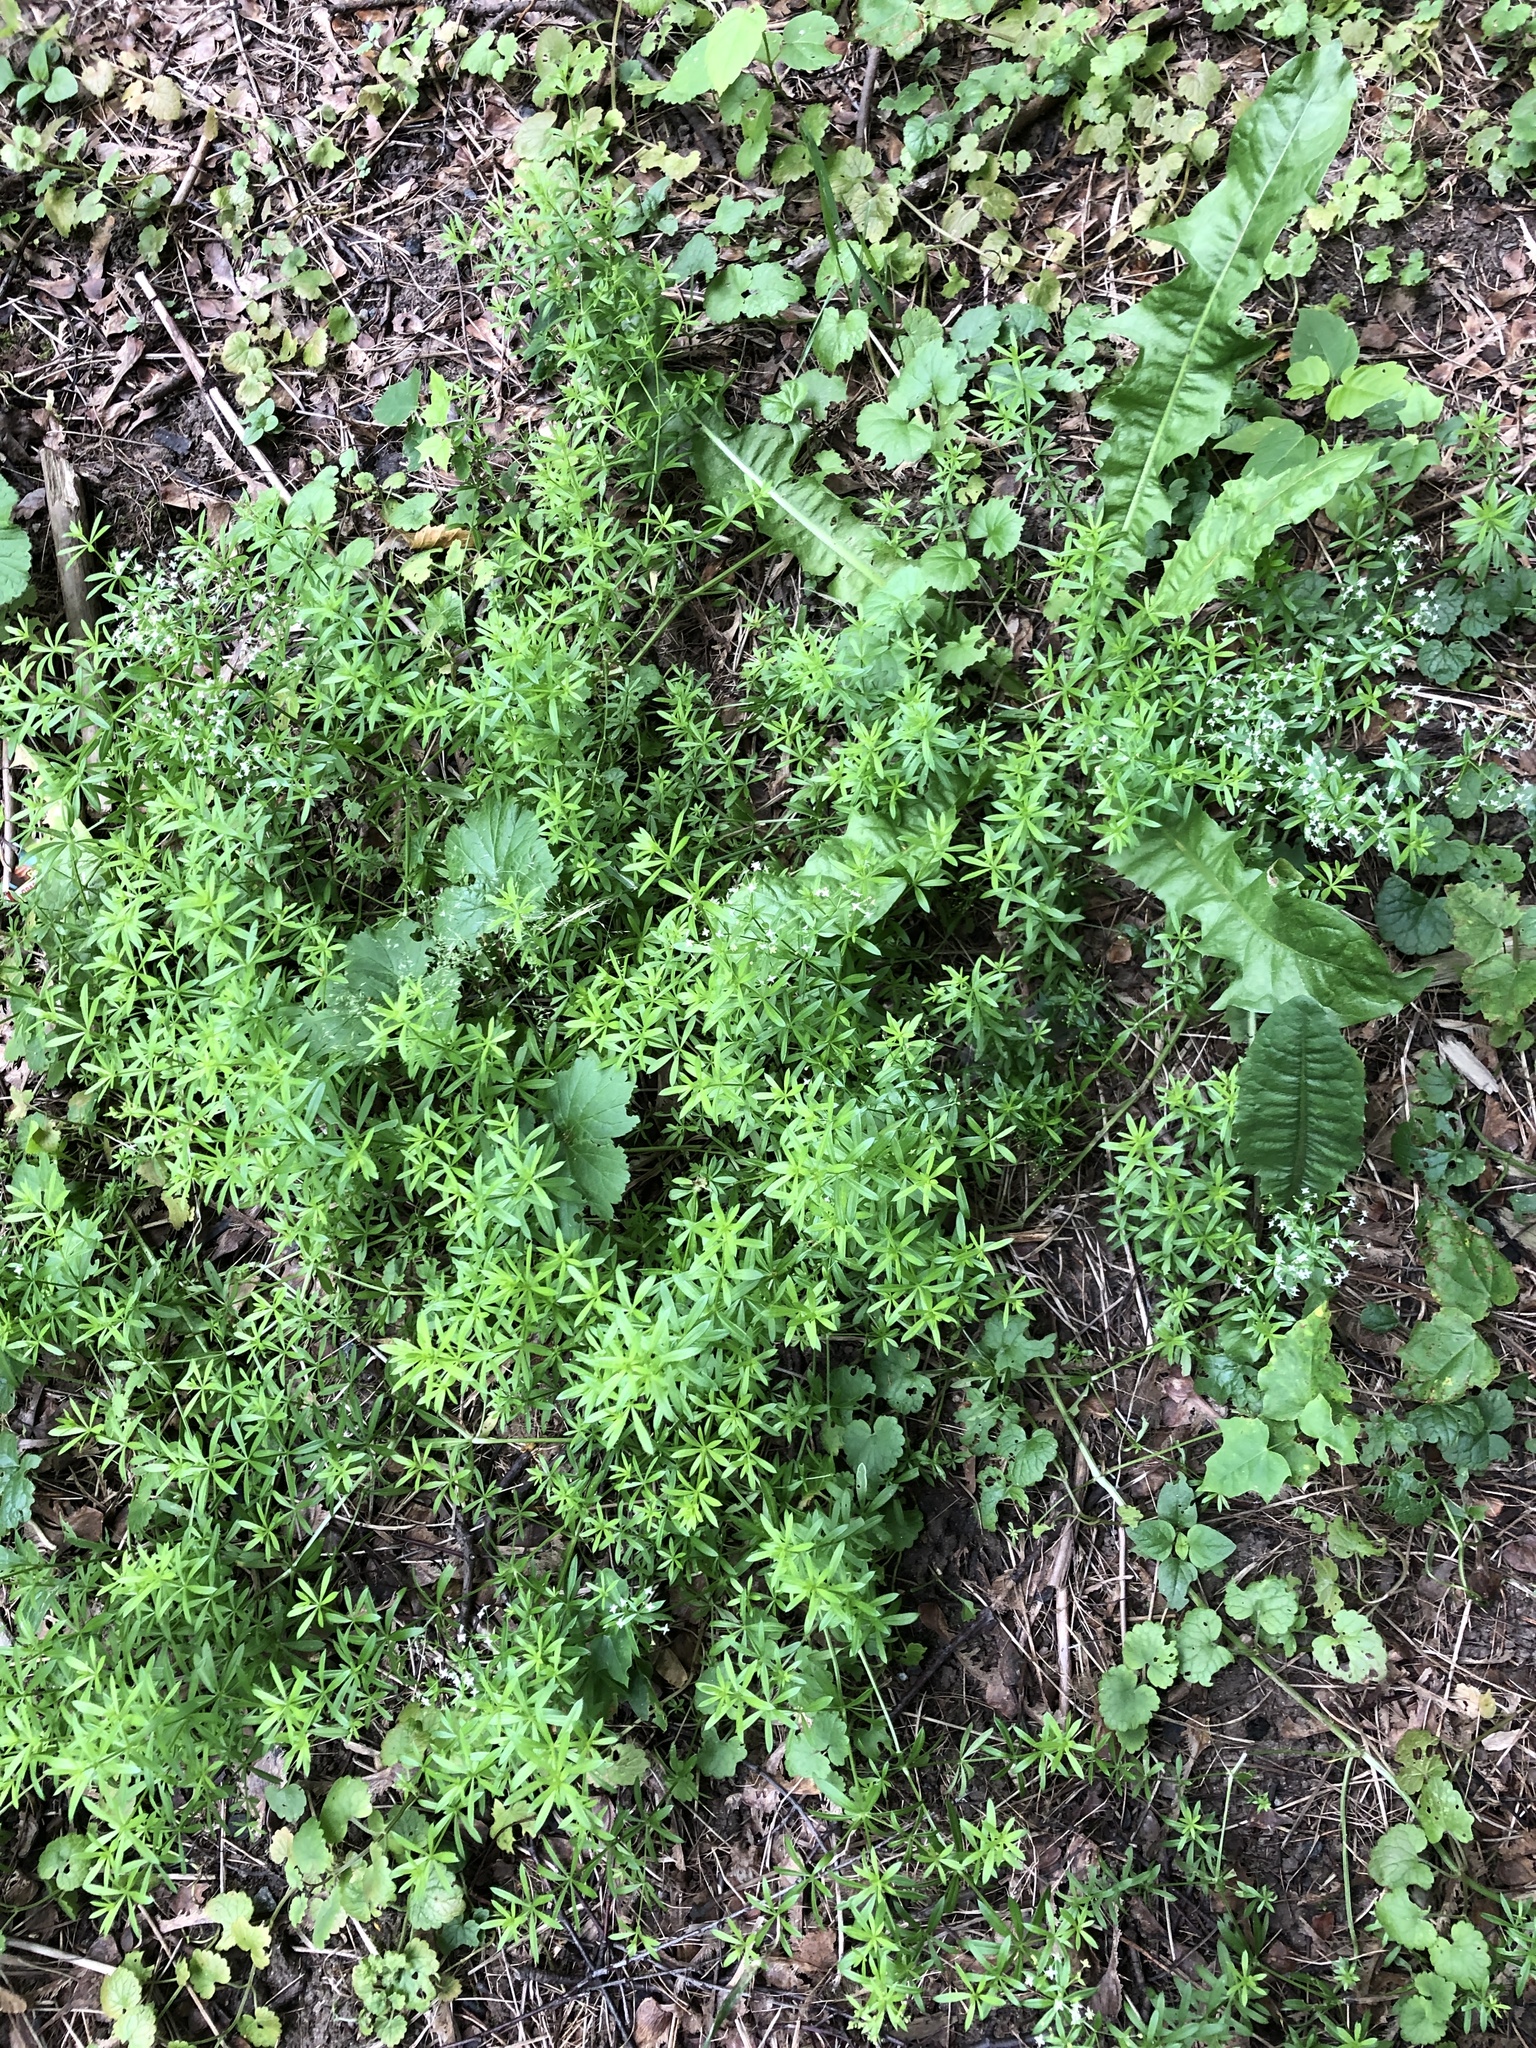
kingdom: Plantae
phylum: Tracheophyta
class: Magnoliopsida
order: Gentianales
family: Rubiaceae
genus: Galium
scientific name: Galium mollugo
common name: Hedge bedstraw
